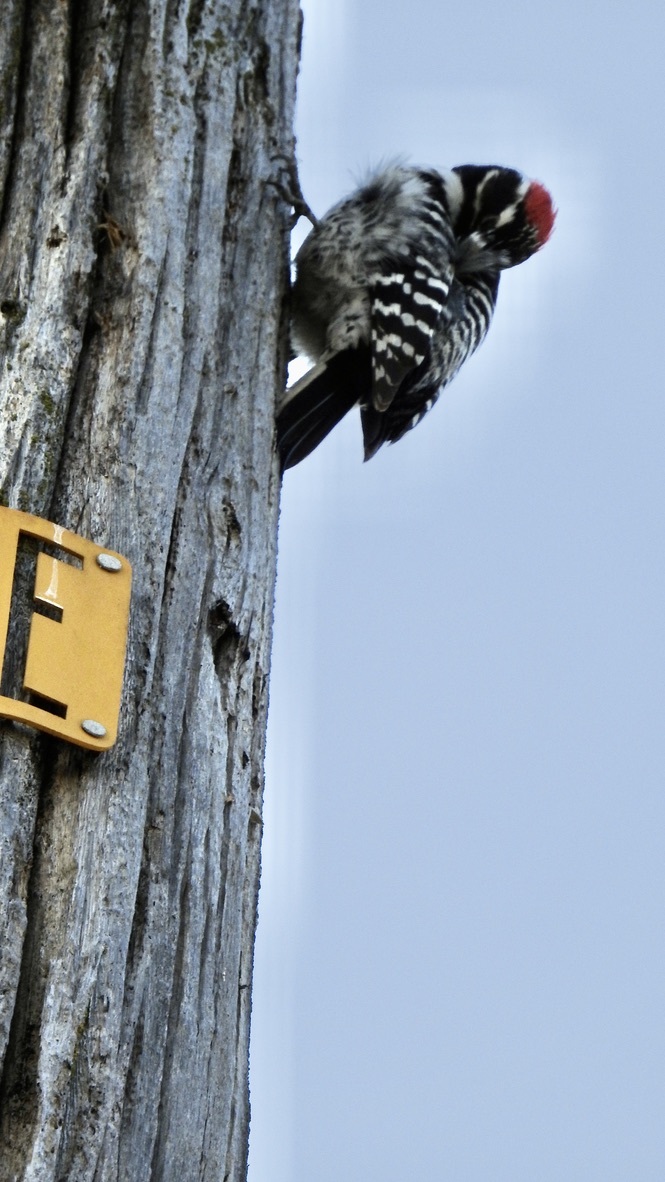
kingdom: Animalia
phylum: Chordata
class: Aves
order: Piciformes
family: Picidae
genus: Dryobates
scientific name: Dryobates nuttallii
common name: Nuttall's woodpecker
